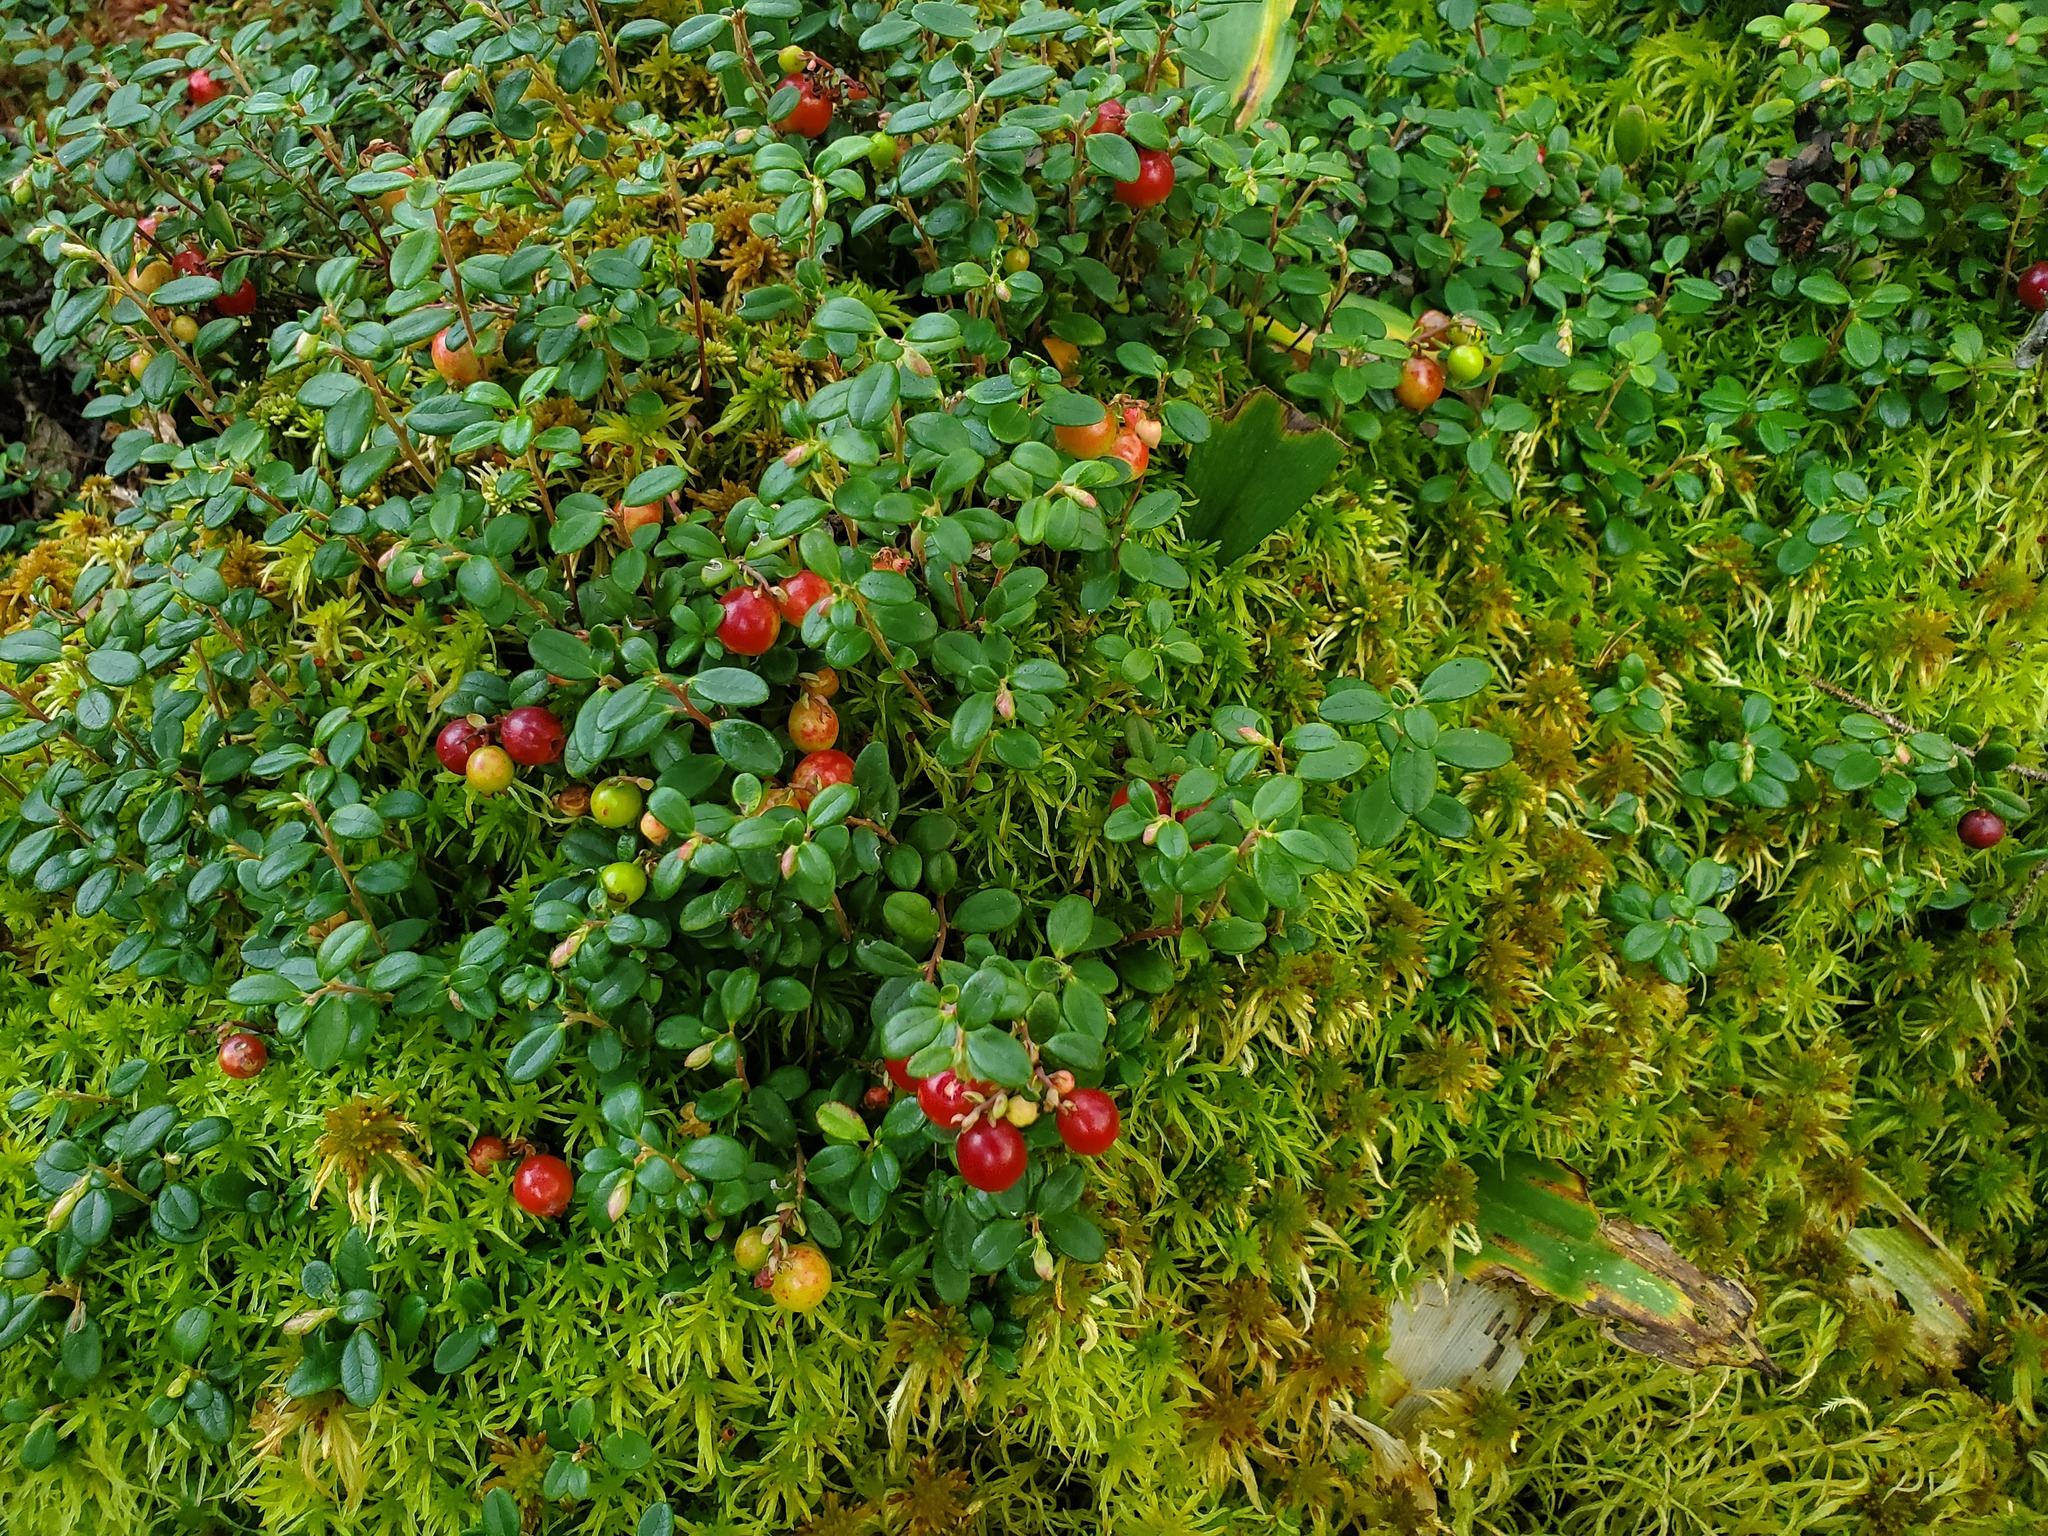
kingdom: Plantae
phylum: Tracheophyta
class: Magnoliopsida
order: Ericales
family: Ericaceae
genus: Vaccinium
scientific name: Vaccinium vitis-idaea
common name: Cowberry
